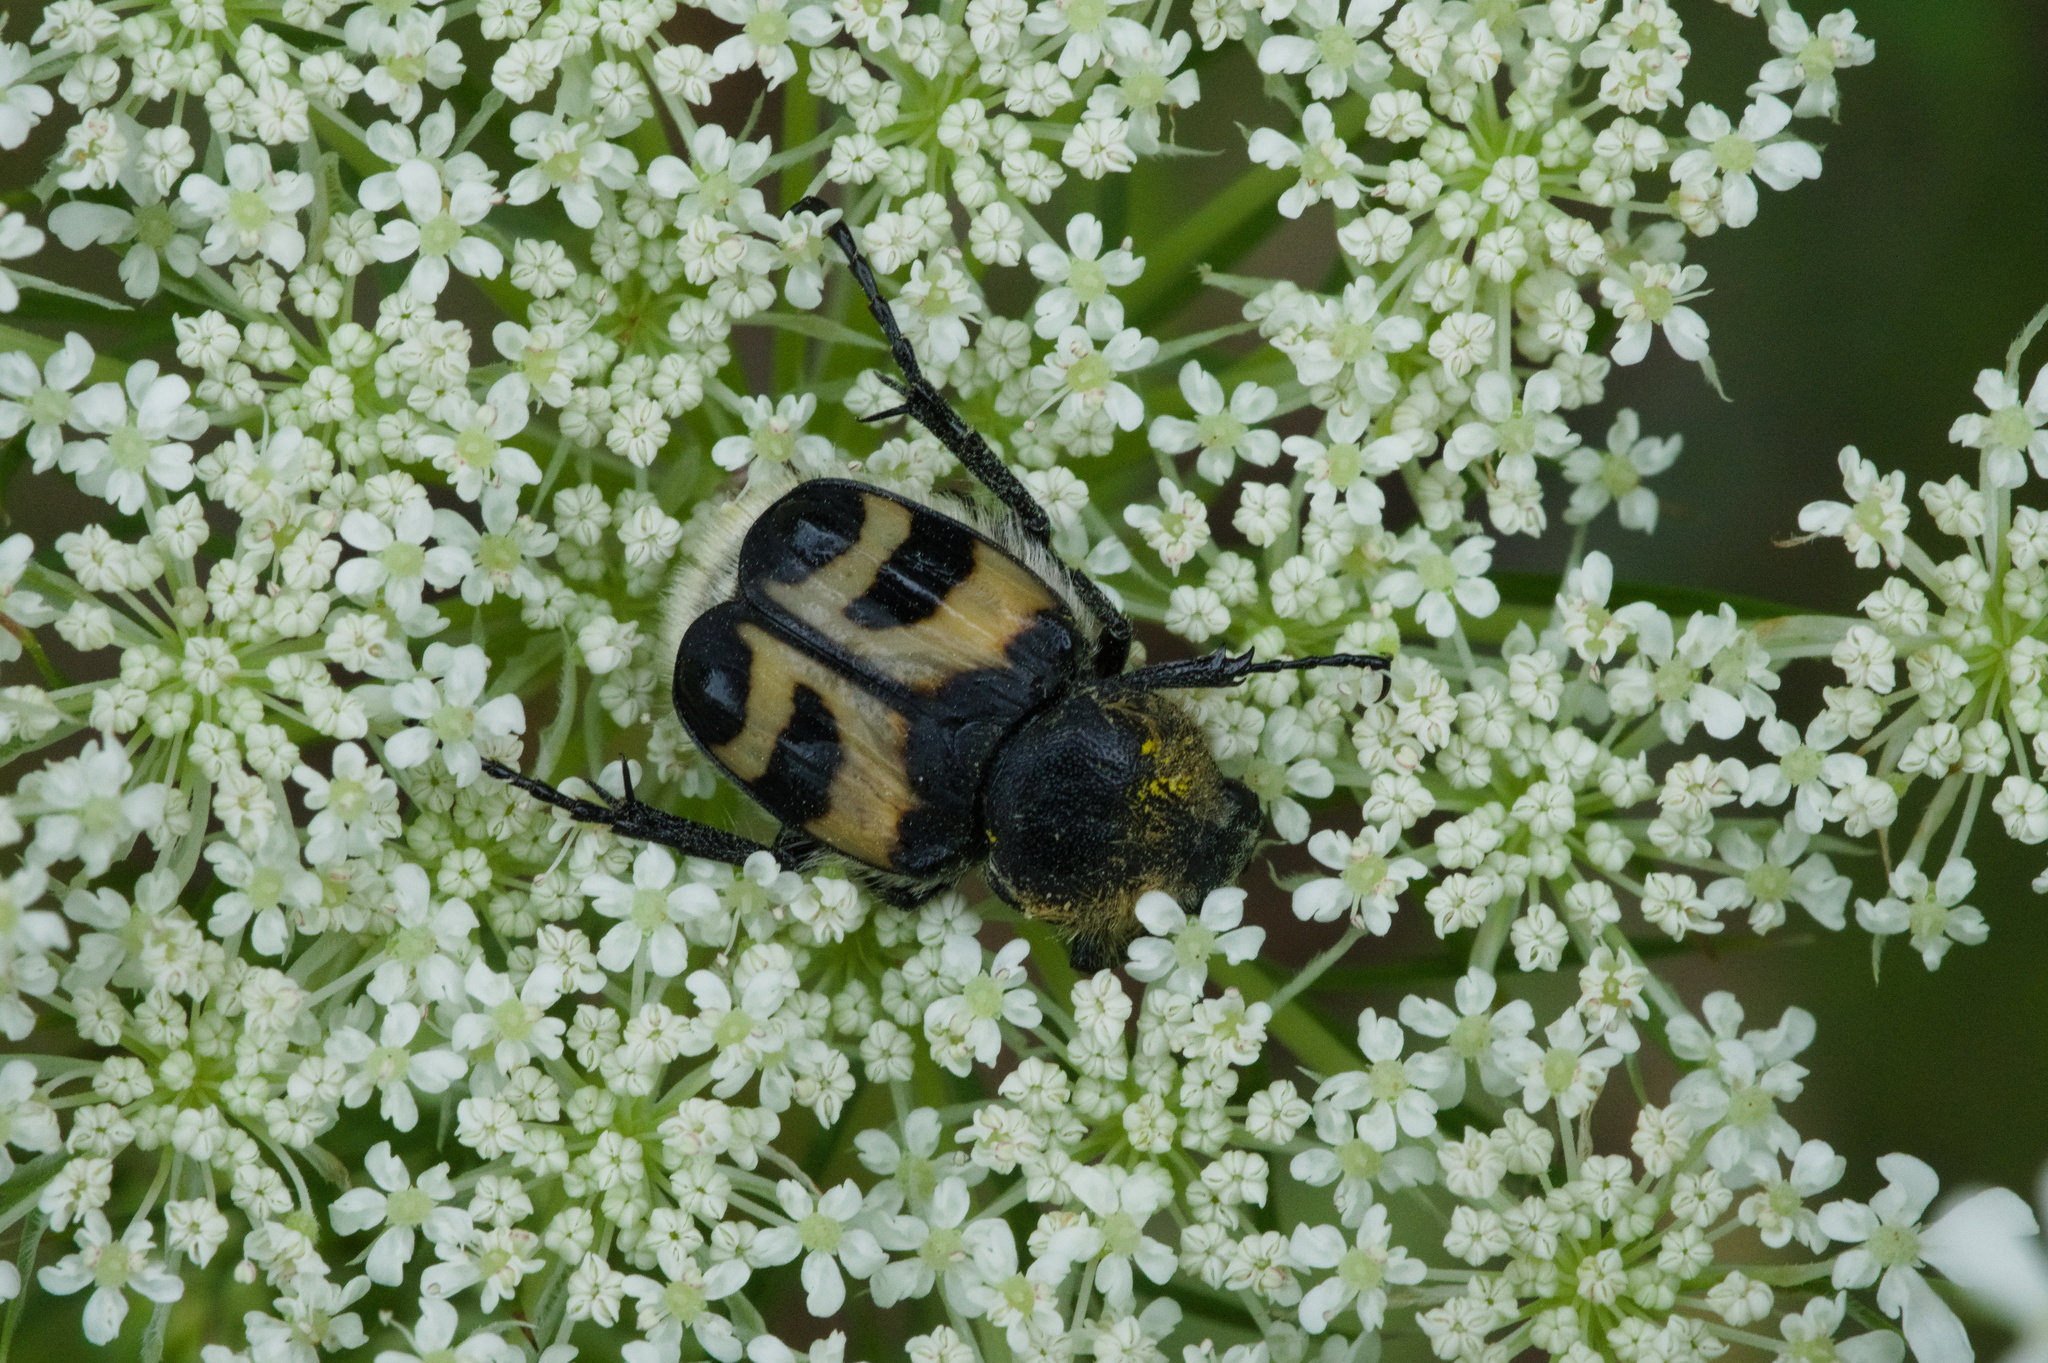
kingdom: Animalia
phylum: Arthropoda
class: Insecta
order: Coleoptera
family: Scarabaeidae
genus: Trichius
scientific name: Trichius fasciatus
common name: Bee beetle
